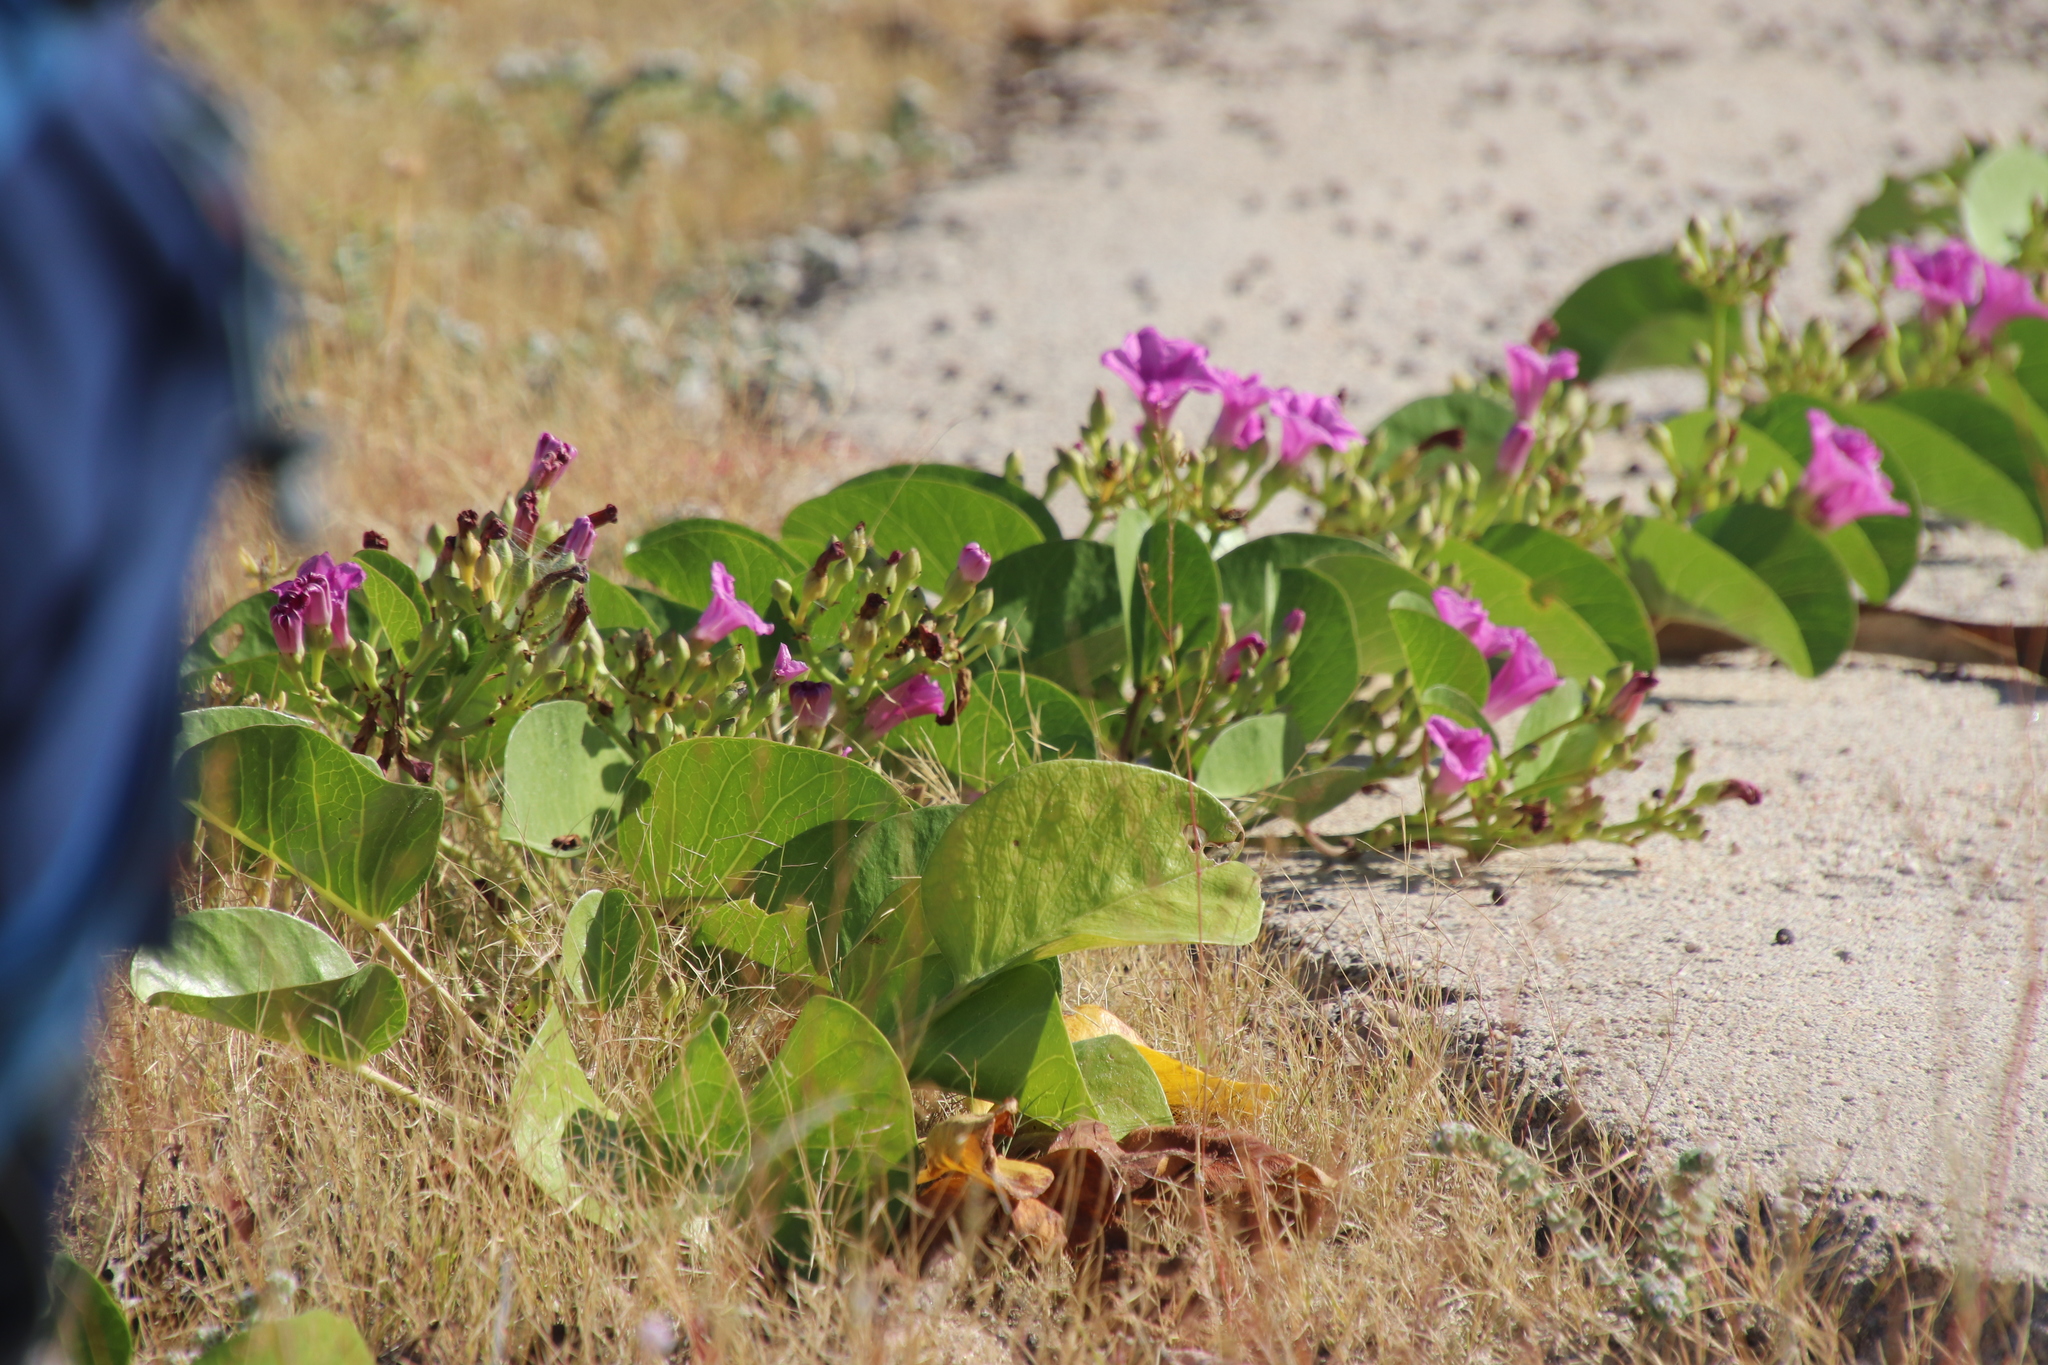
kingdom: Plantae
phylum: Tracheophyta
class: Magnoliopsida
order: Solanales
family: Convolvulaceae
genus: Ipomoea
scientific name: Ipomoea pes-caprae
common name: Beach morning glory
